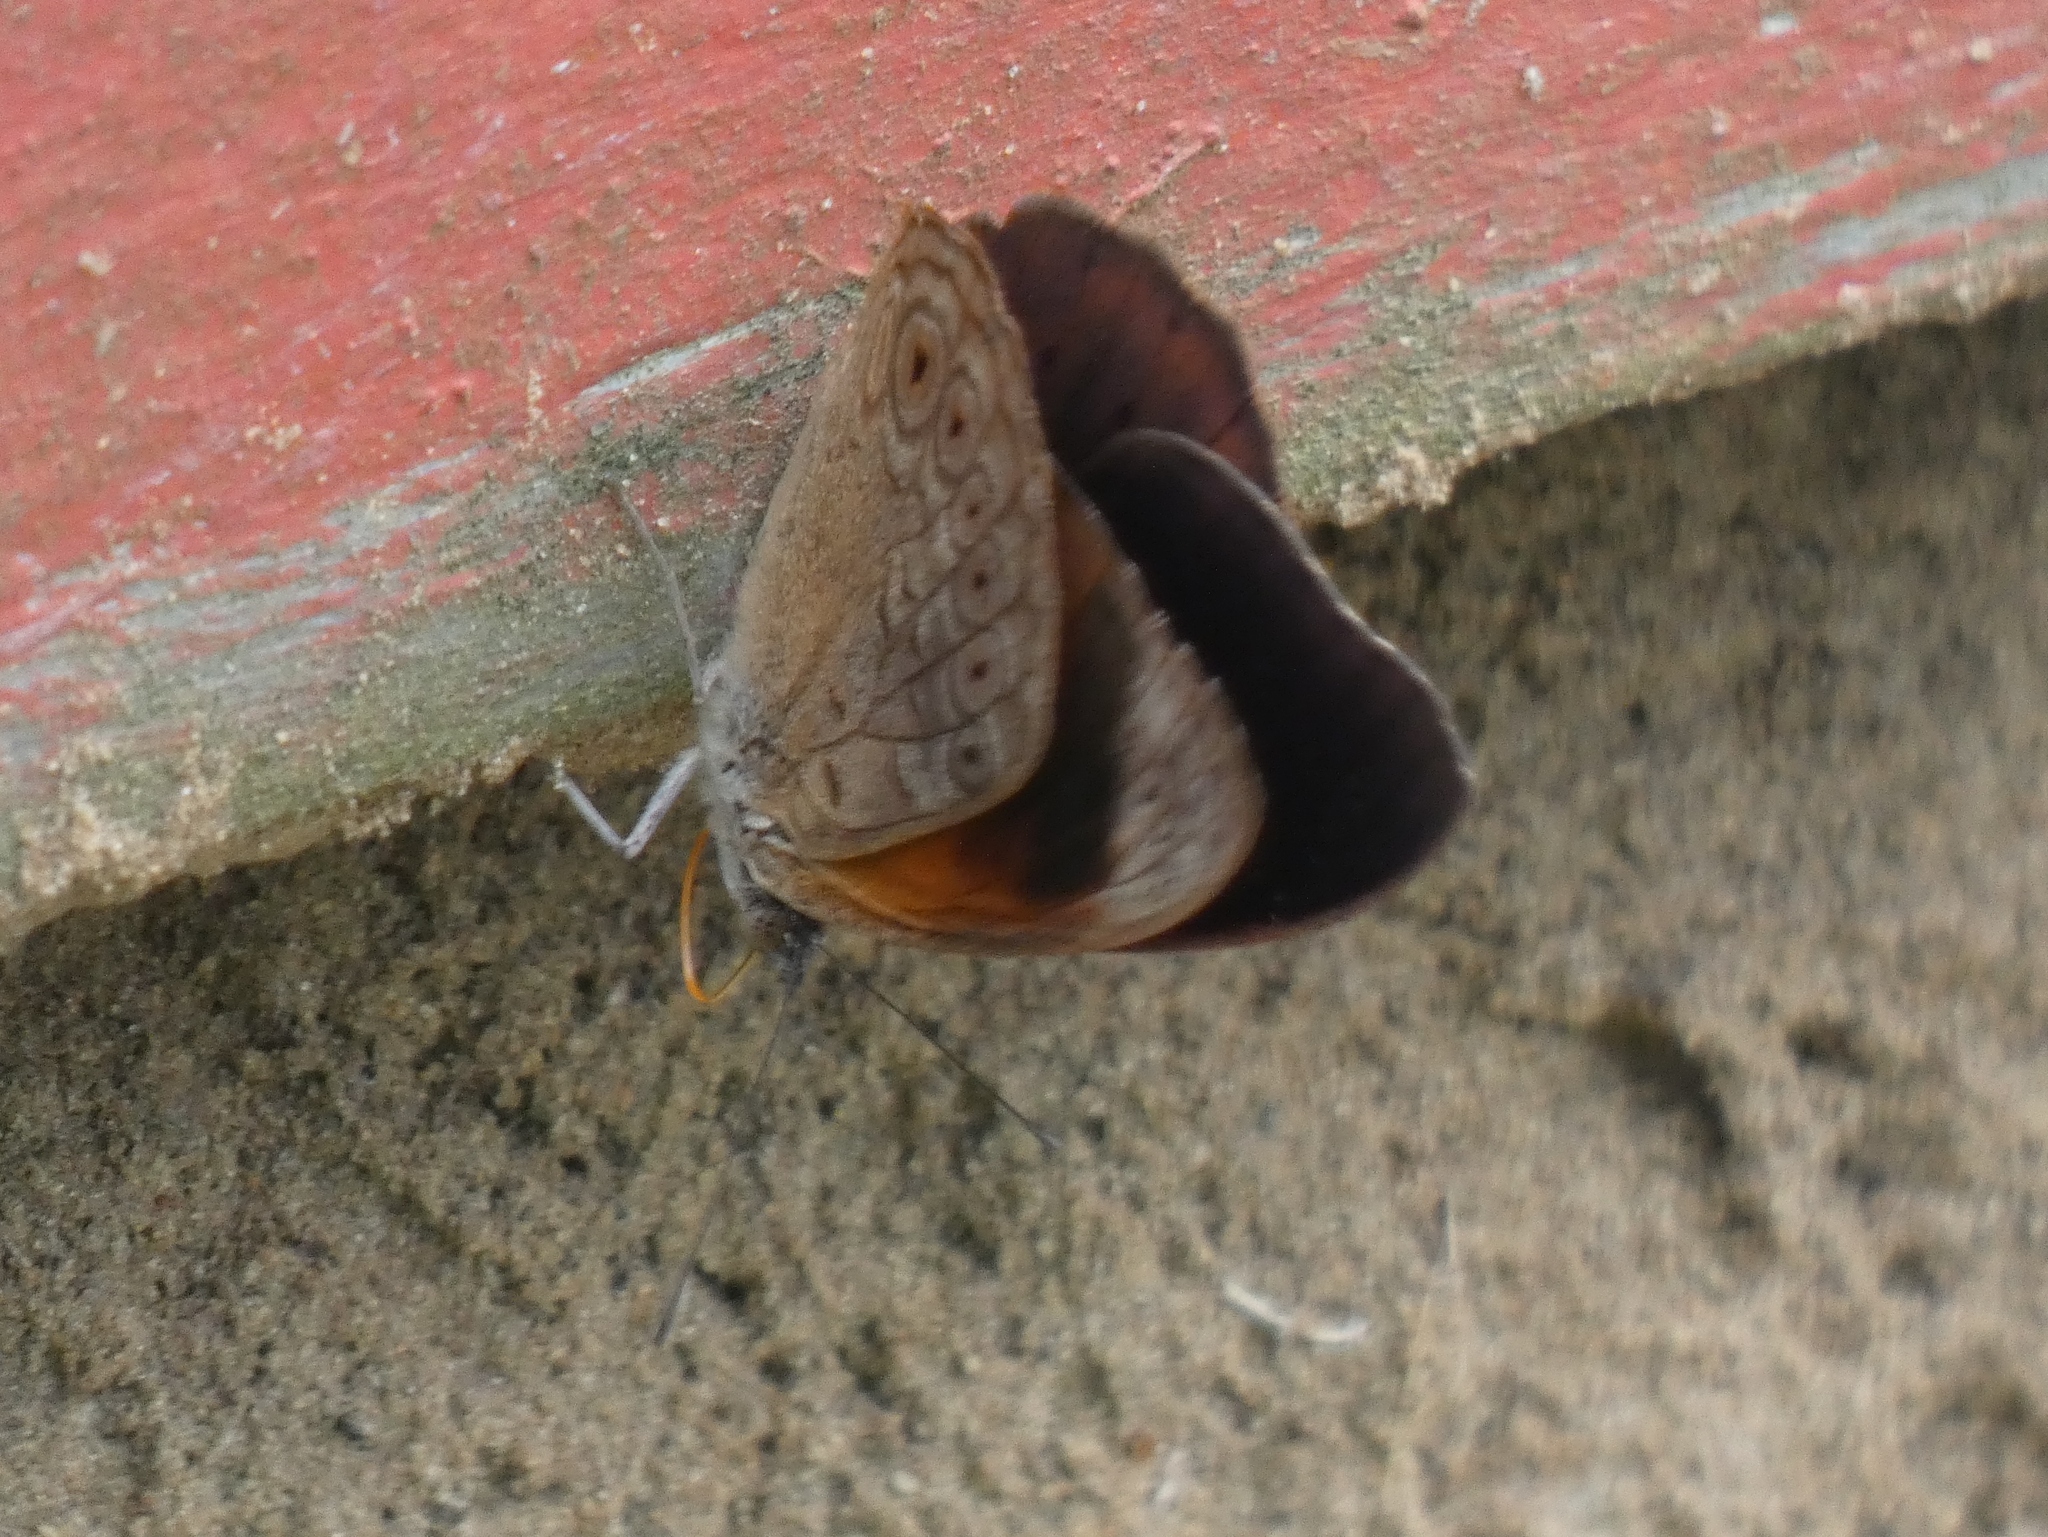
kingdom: Animalia
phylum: Arthropoda
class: Insecta
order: Lepidoptera
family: Nymphalidae
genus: Asterope
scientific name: Asterope occidentalium
